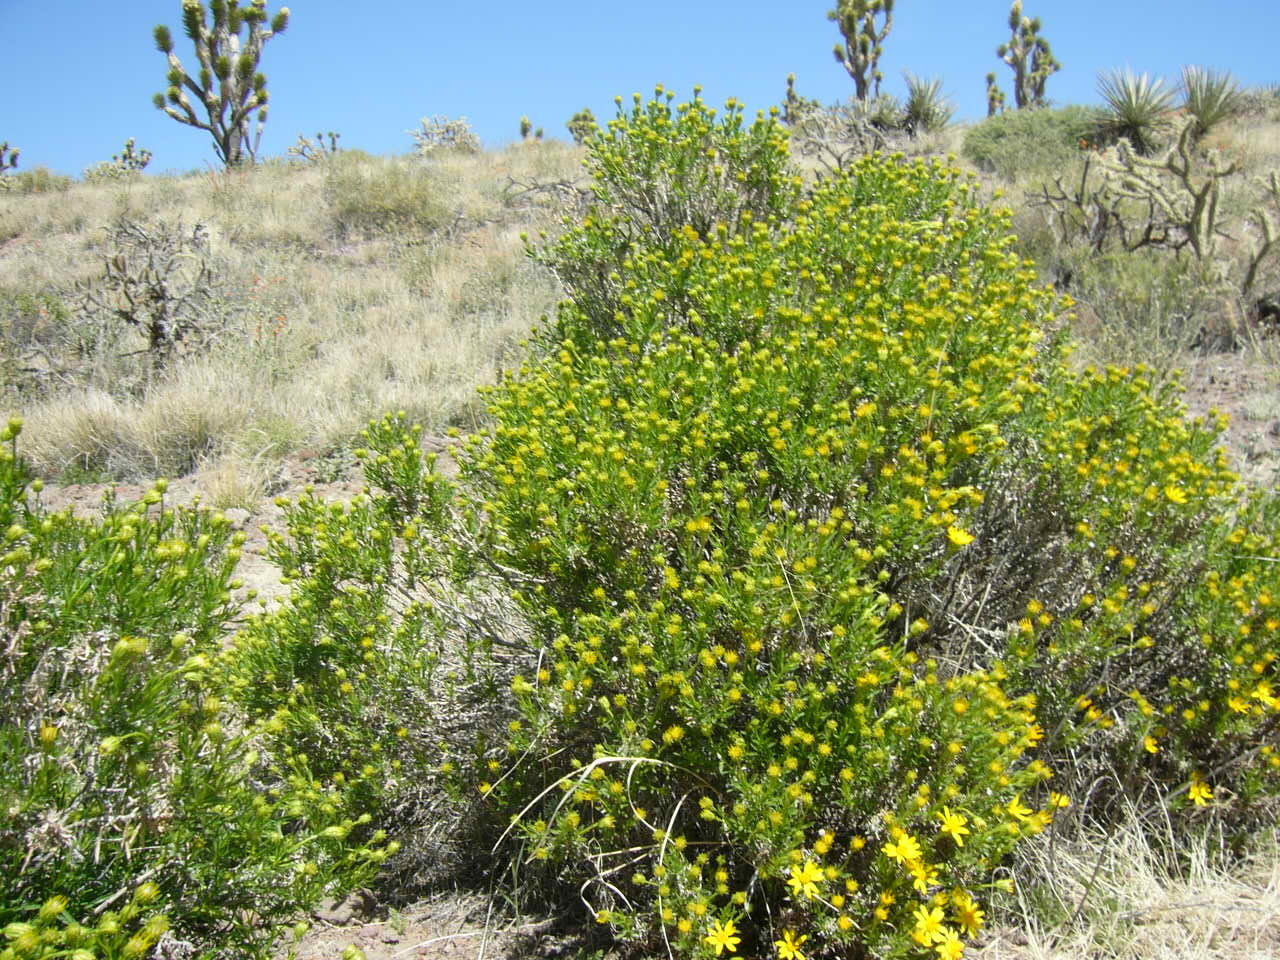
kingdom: Plantae
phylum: Tracheophyta
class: Magnoliopsida
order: Asterales
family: Asteraceae
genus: Ericameria
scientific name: Ericameria linearifolia
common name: Interior goldenbush
